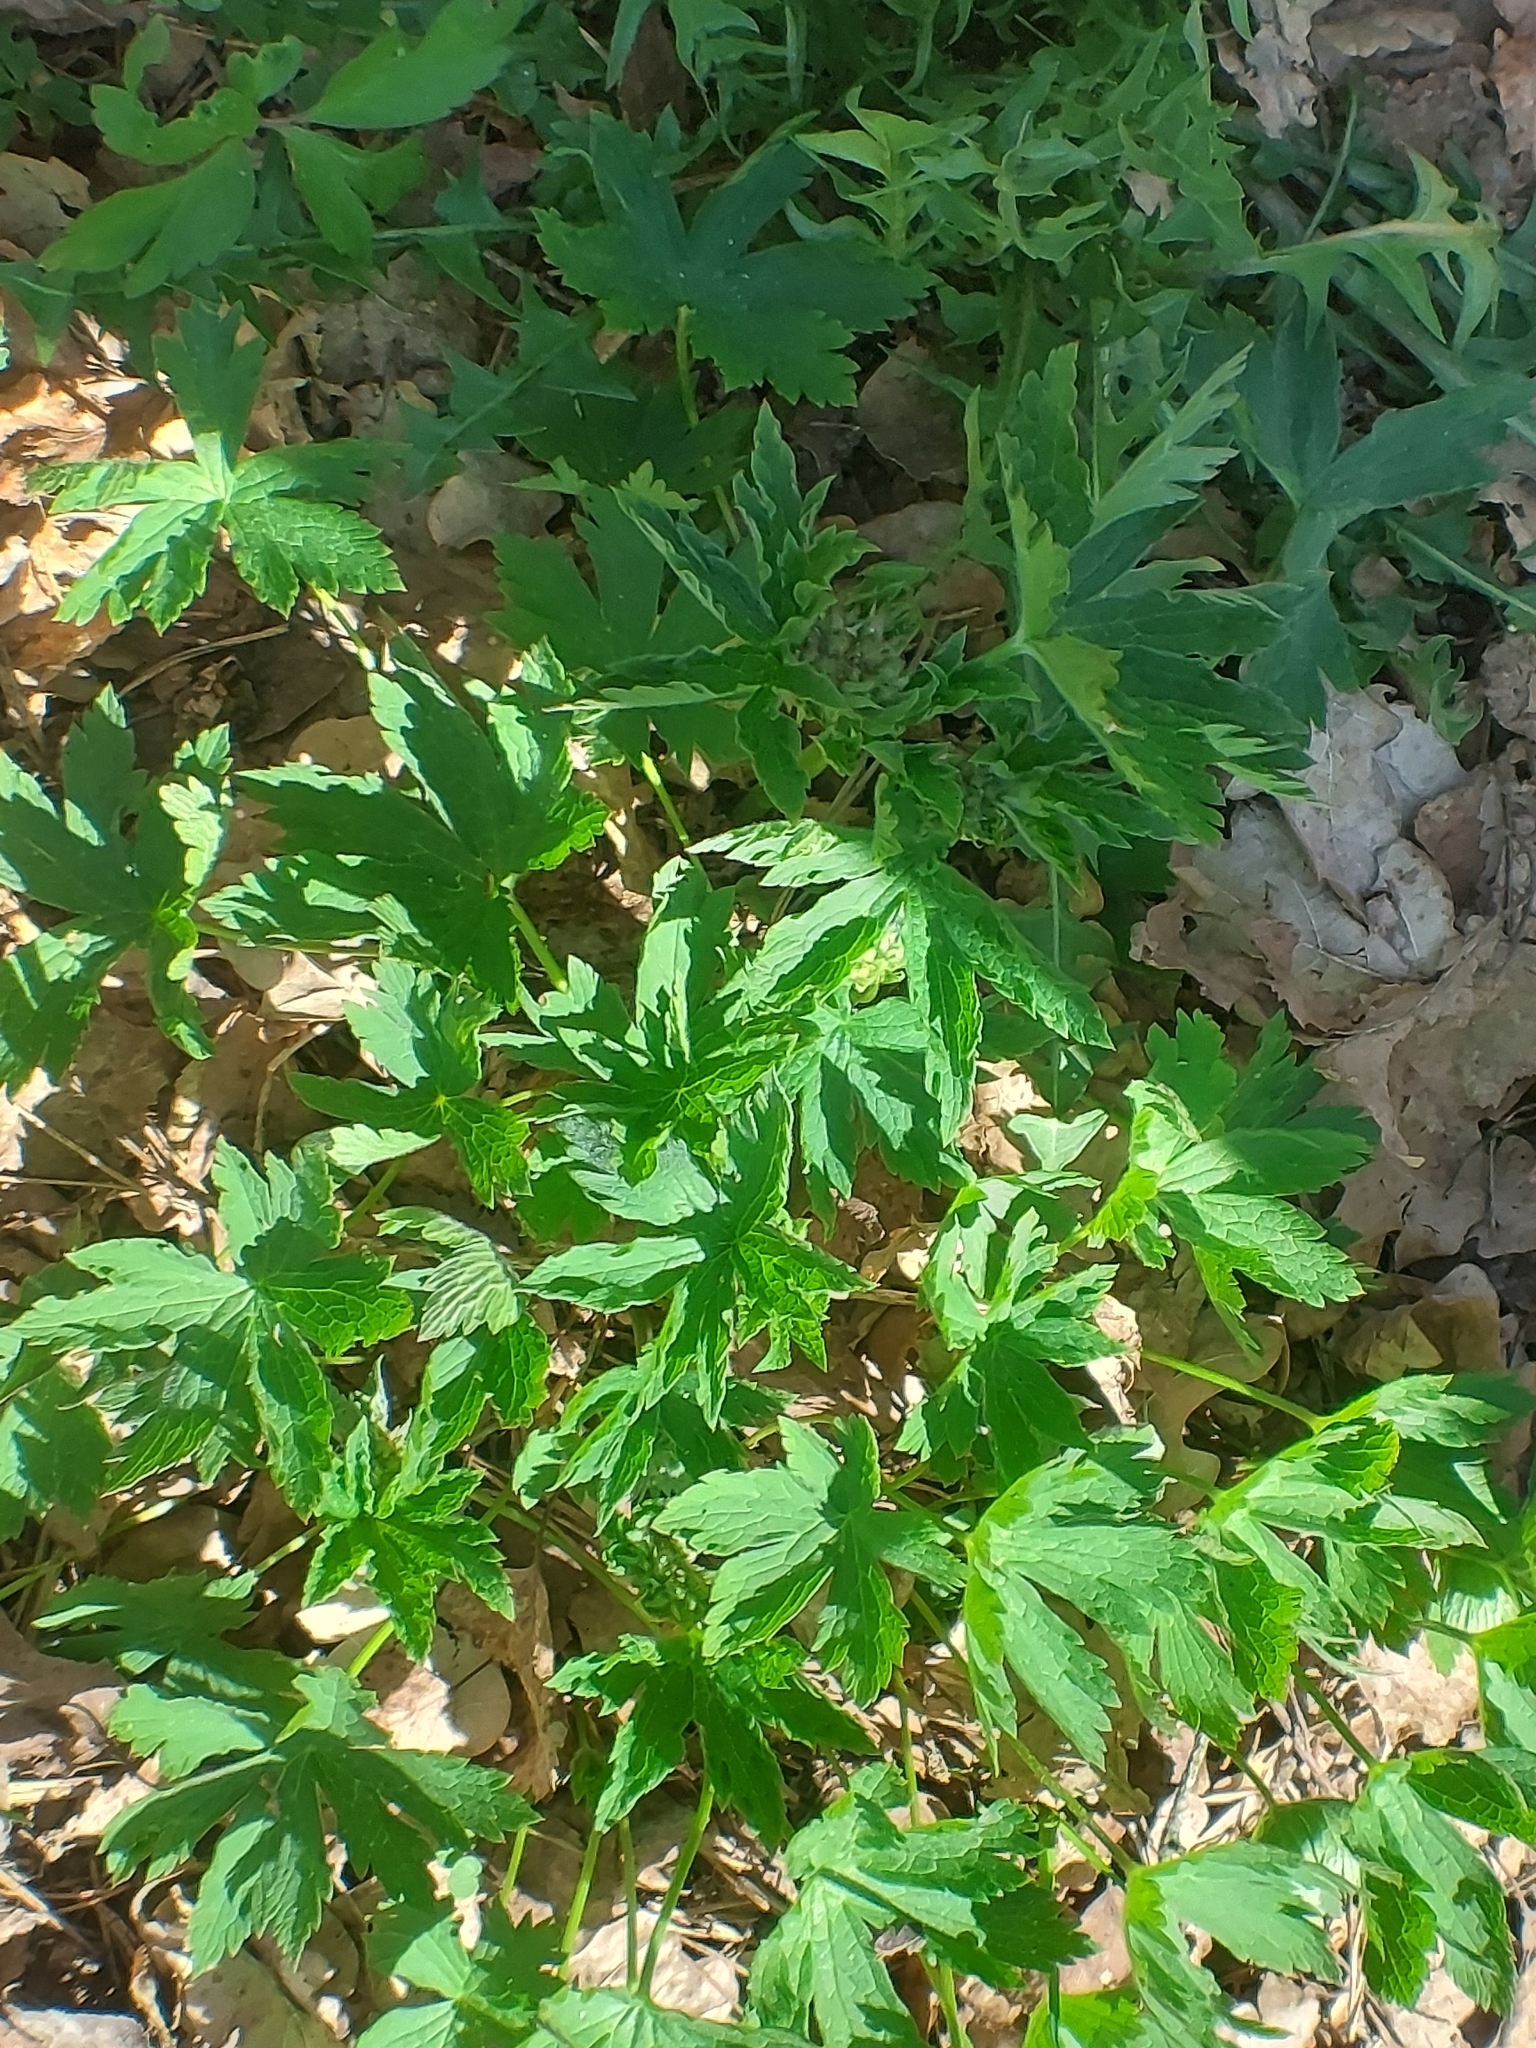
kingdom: Plantae
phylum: Tracheophyta
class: Magnoliopsida
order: Geraniales
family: Geraniaceae
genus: Geranium
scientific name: Geranium sylvaticum
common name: Wood crane's-bill
